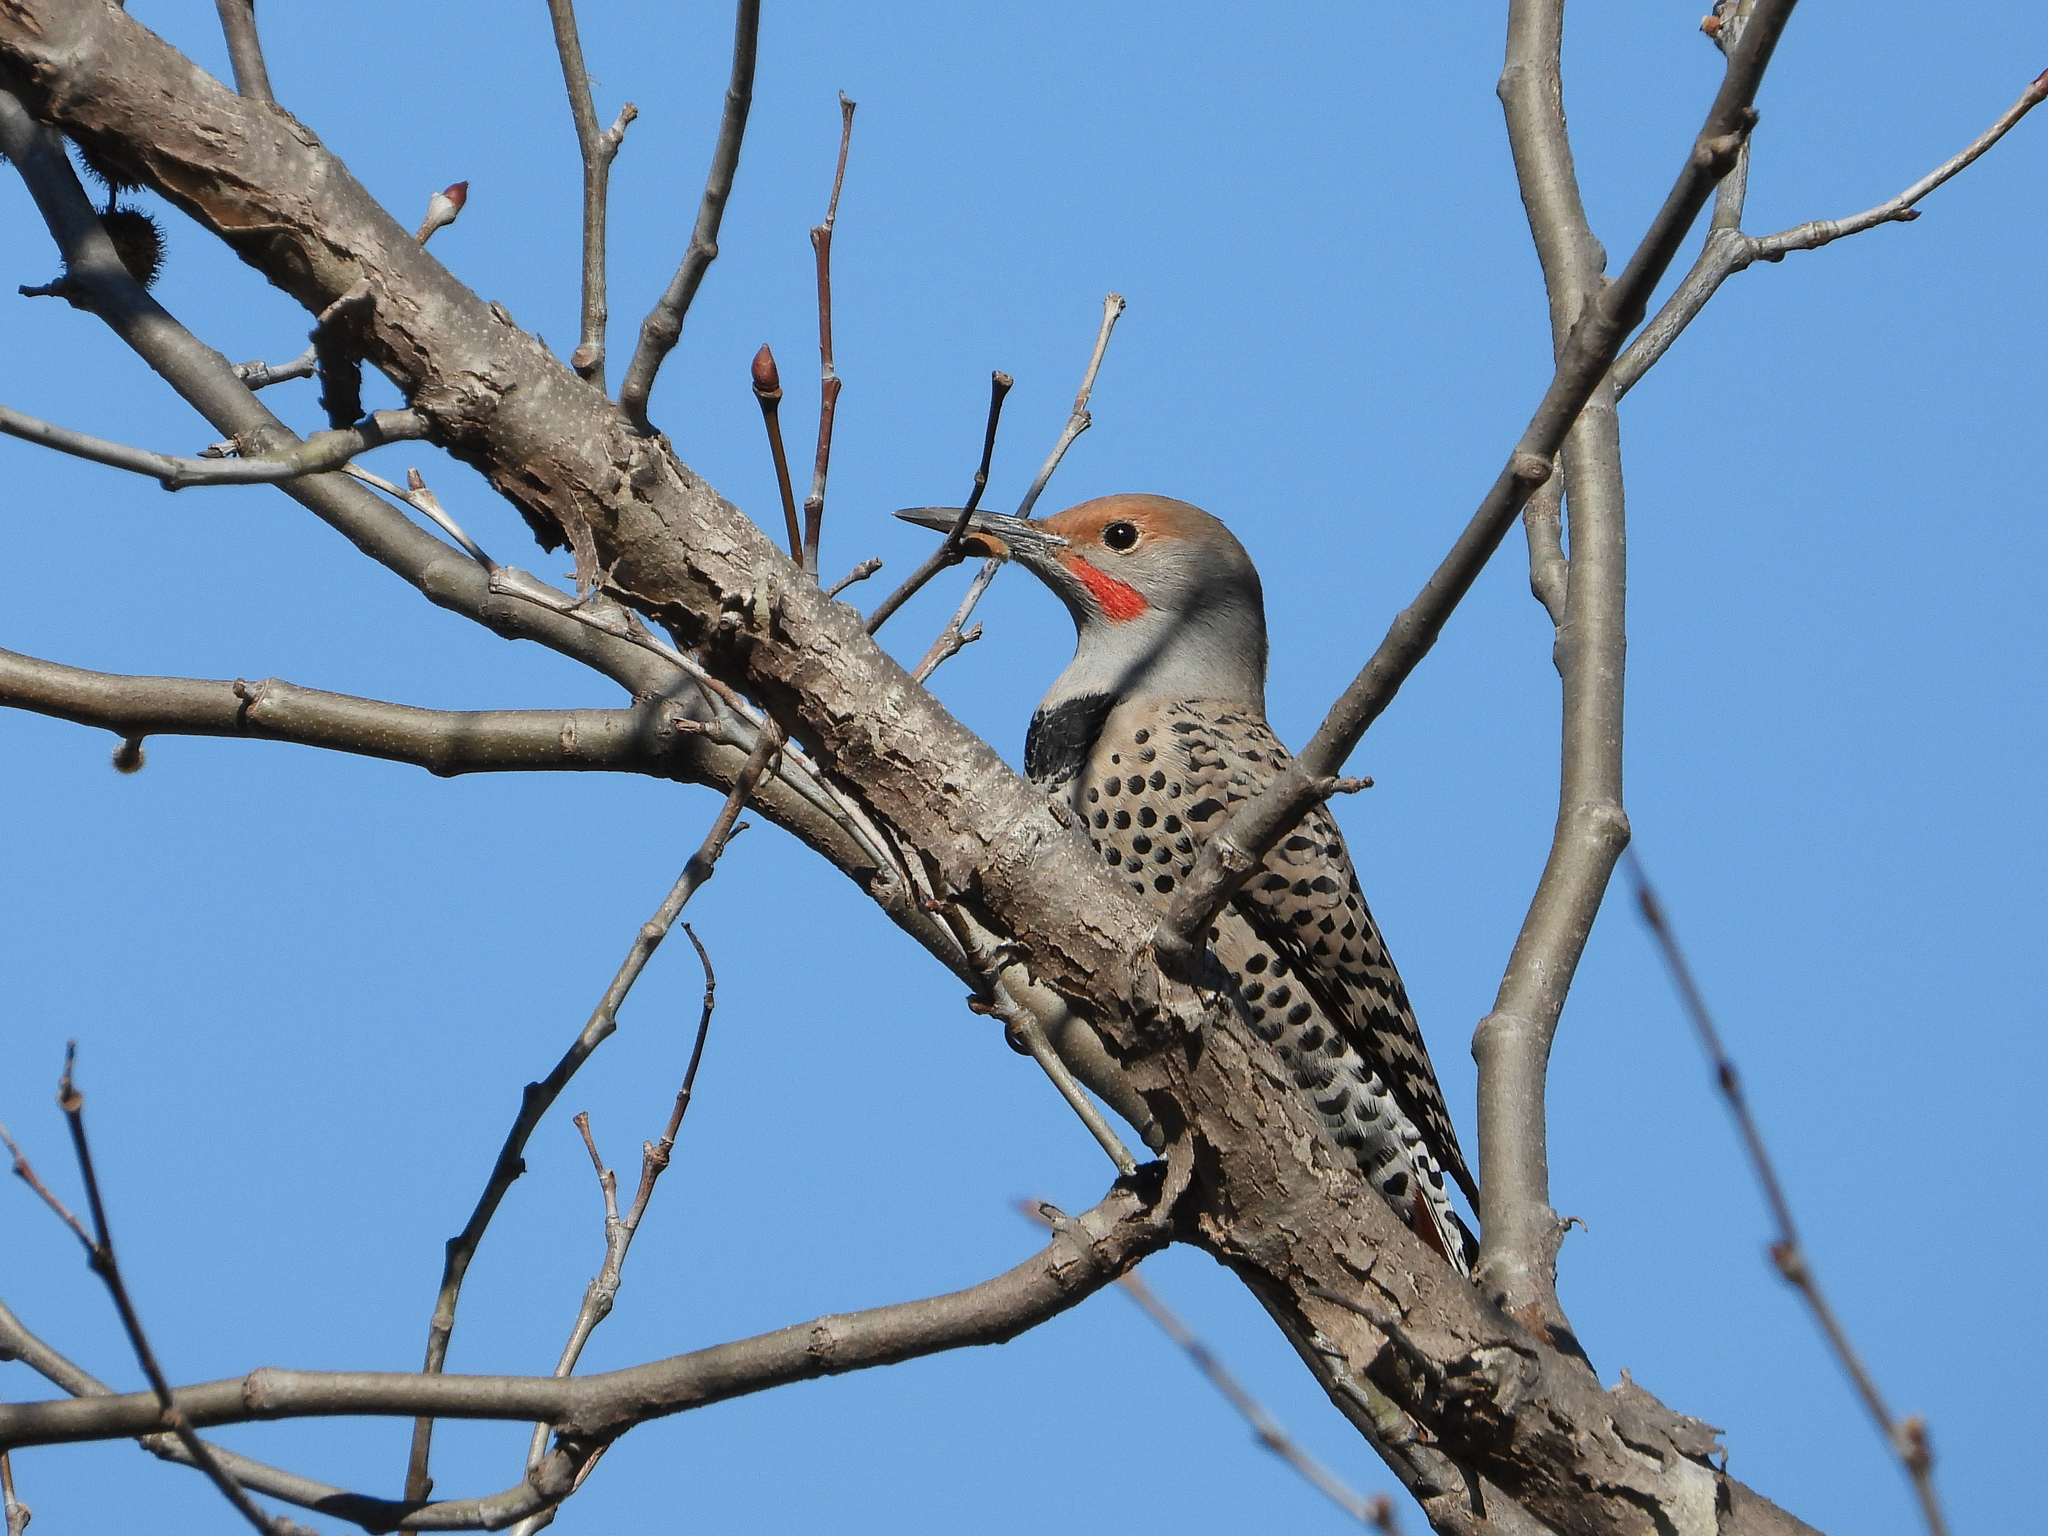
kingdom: Animalia
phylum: Chordata
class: Aves
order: Piciformes
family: Picidae
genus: Colaptes
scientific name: Colaptes auratus
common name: Northern flicker
